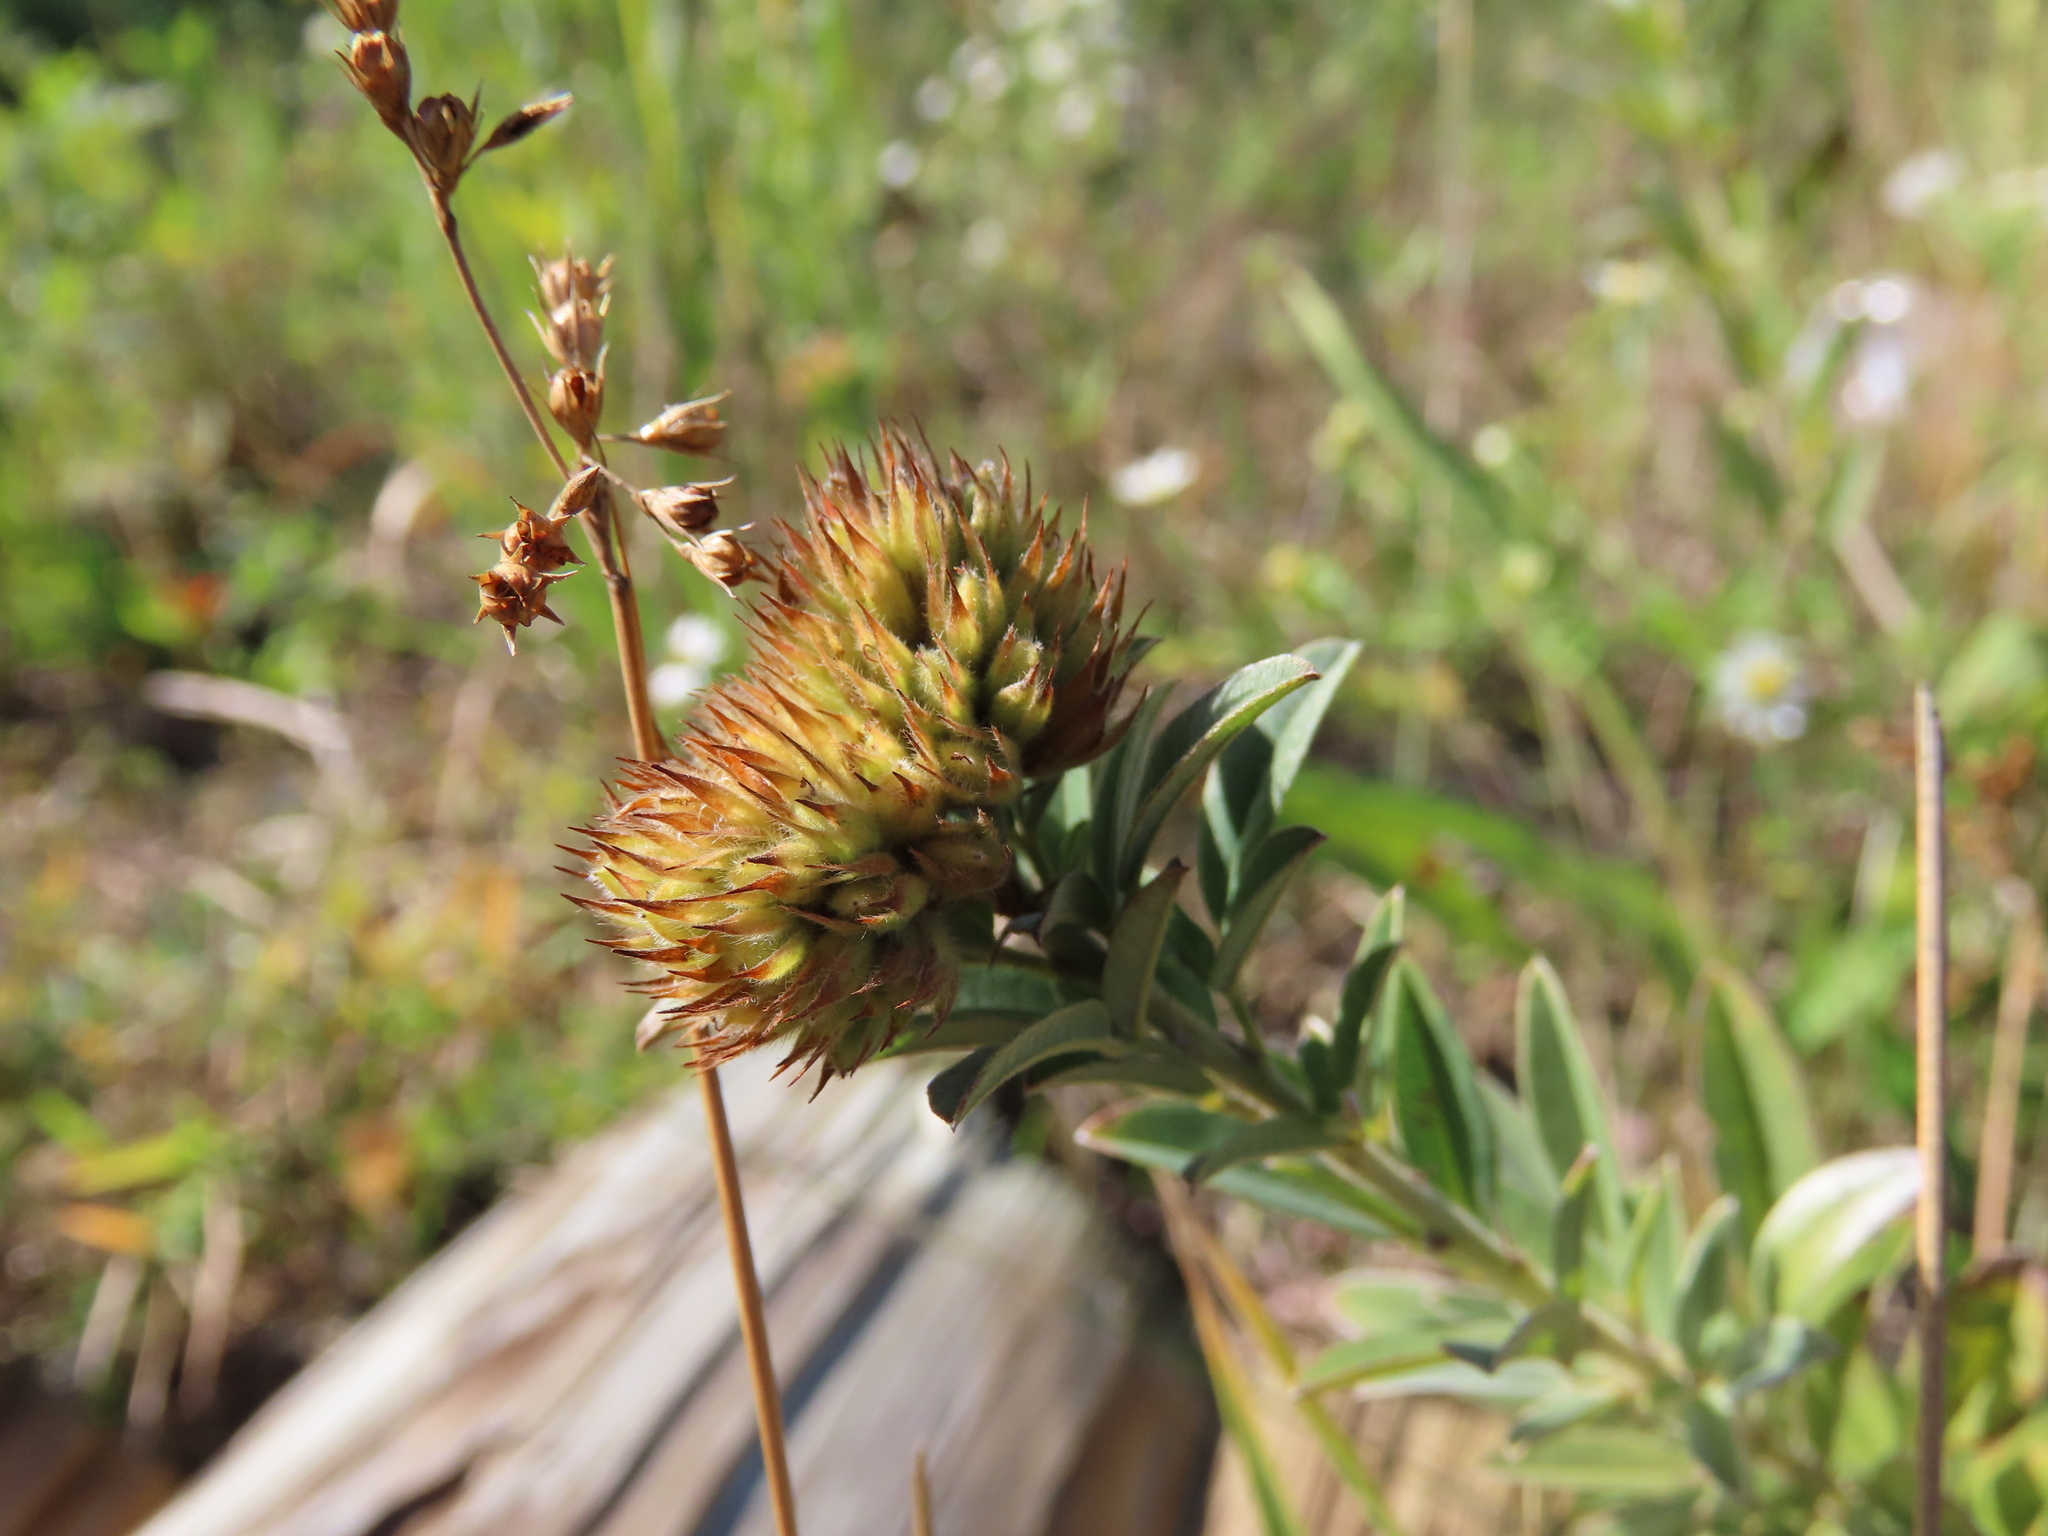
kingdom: Plantae
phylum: Tracheophyta
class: Magnoliopsida
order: Fabales
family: Fabaceae
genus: Lespedeza
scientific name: Lespedeza capitata
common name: Dusty clover
